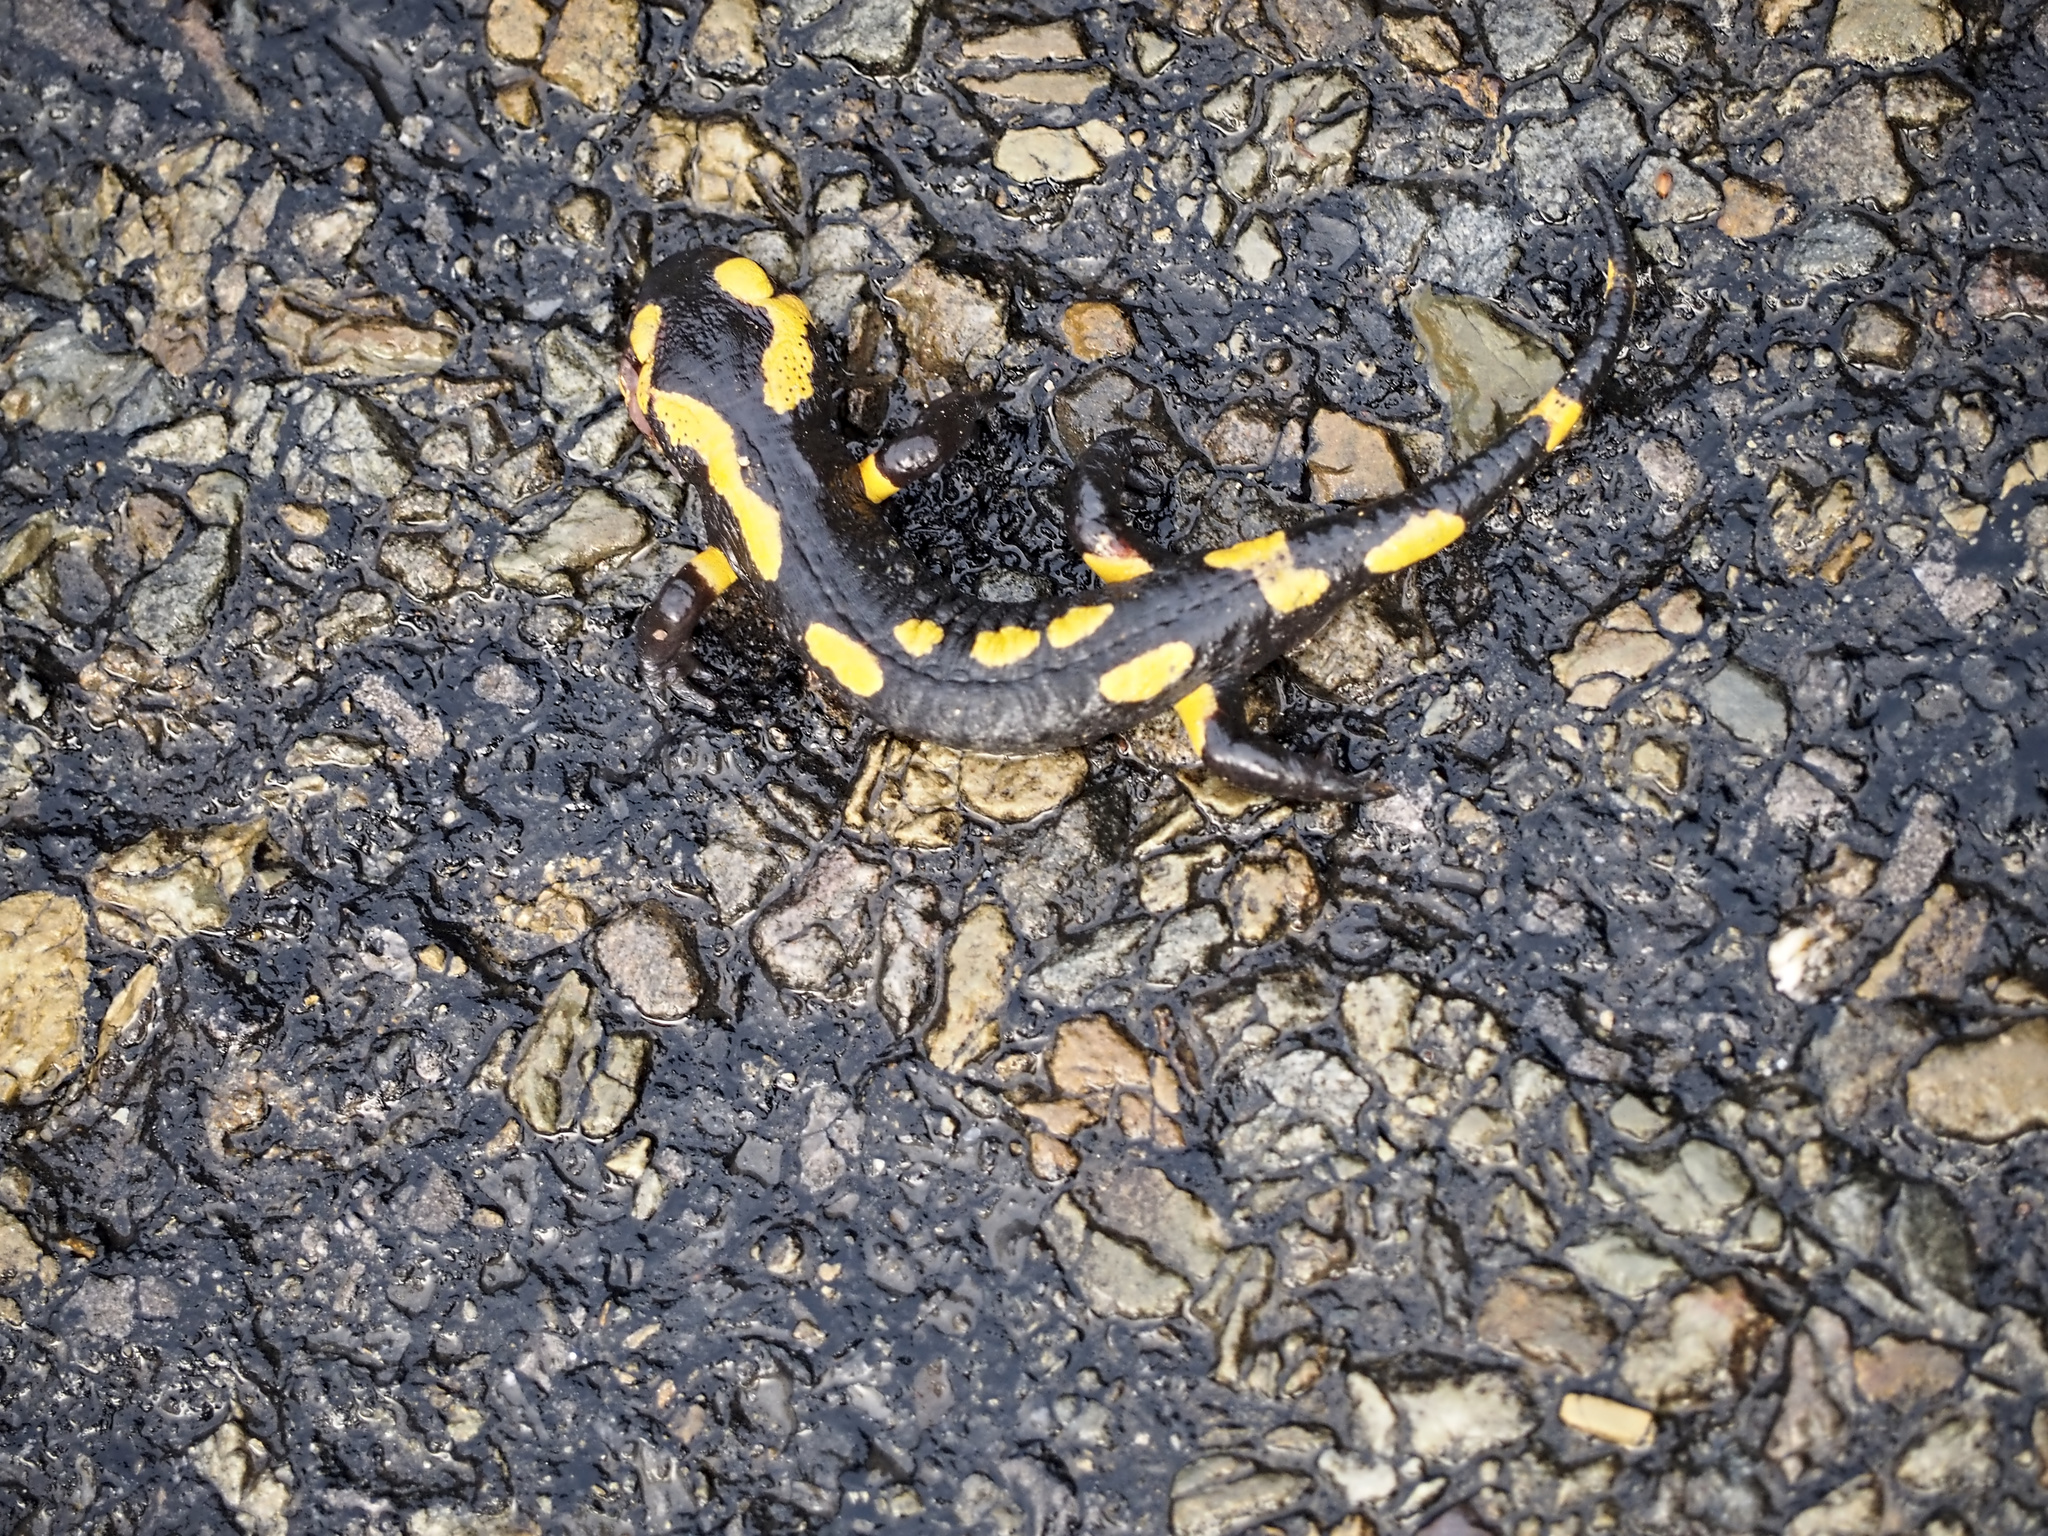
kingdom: Animalia
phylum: Chordata
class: Amphibia
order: Caudata
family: Salamandridae
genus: Salamandra
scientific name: Salamandra salamandra
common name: Fire salamander
